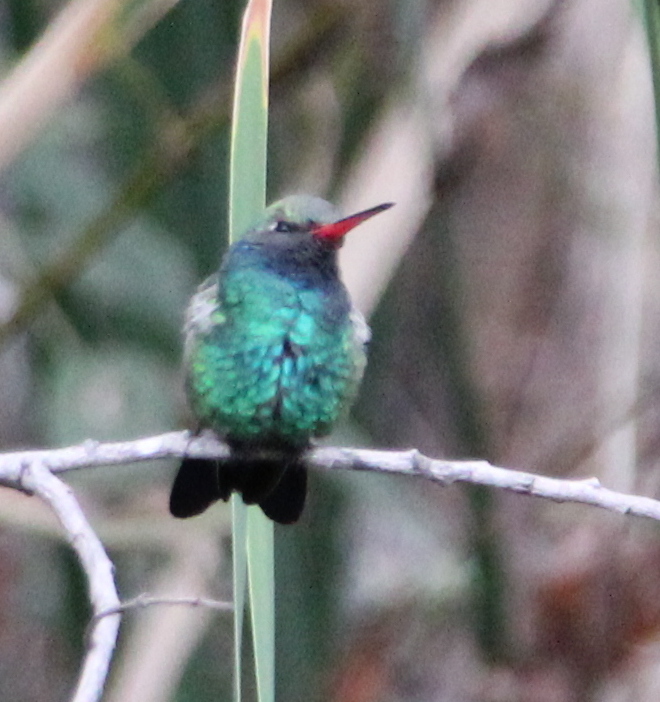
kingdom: Animalia
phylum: Chordata
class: Aves
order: Apodiformes
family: Trochilidae
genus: Cynanthus
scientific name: Cynanthus latirostris
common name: Broad-billed hummingbird
